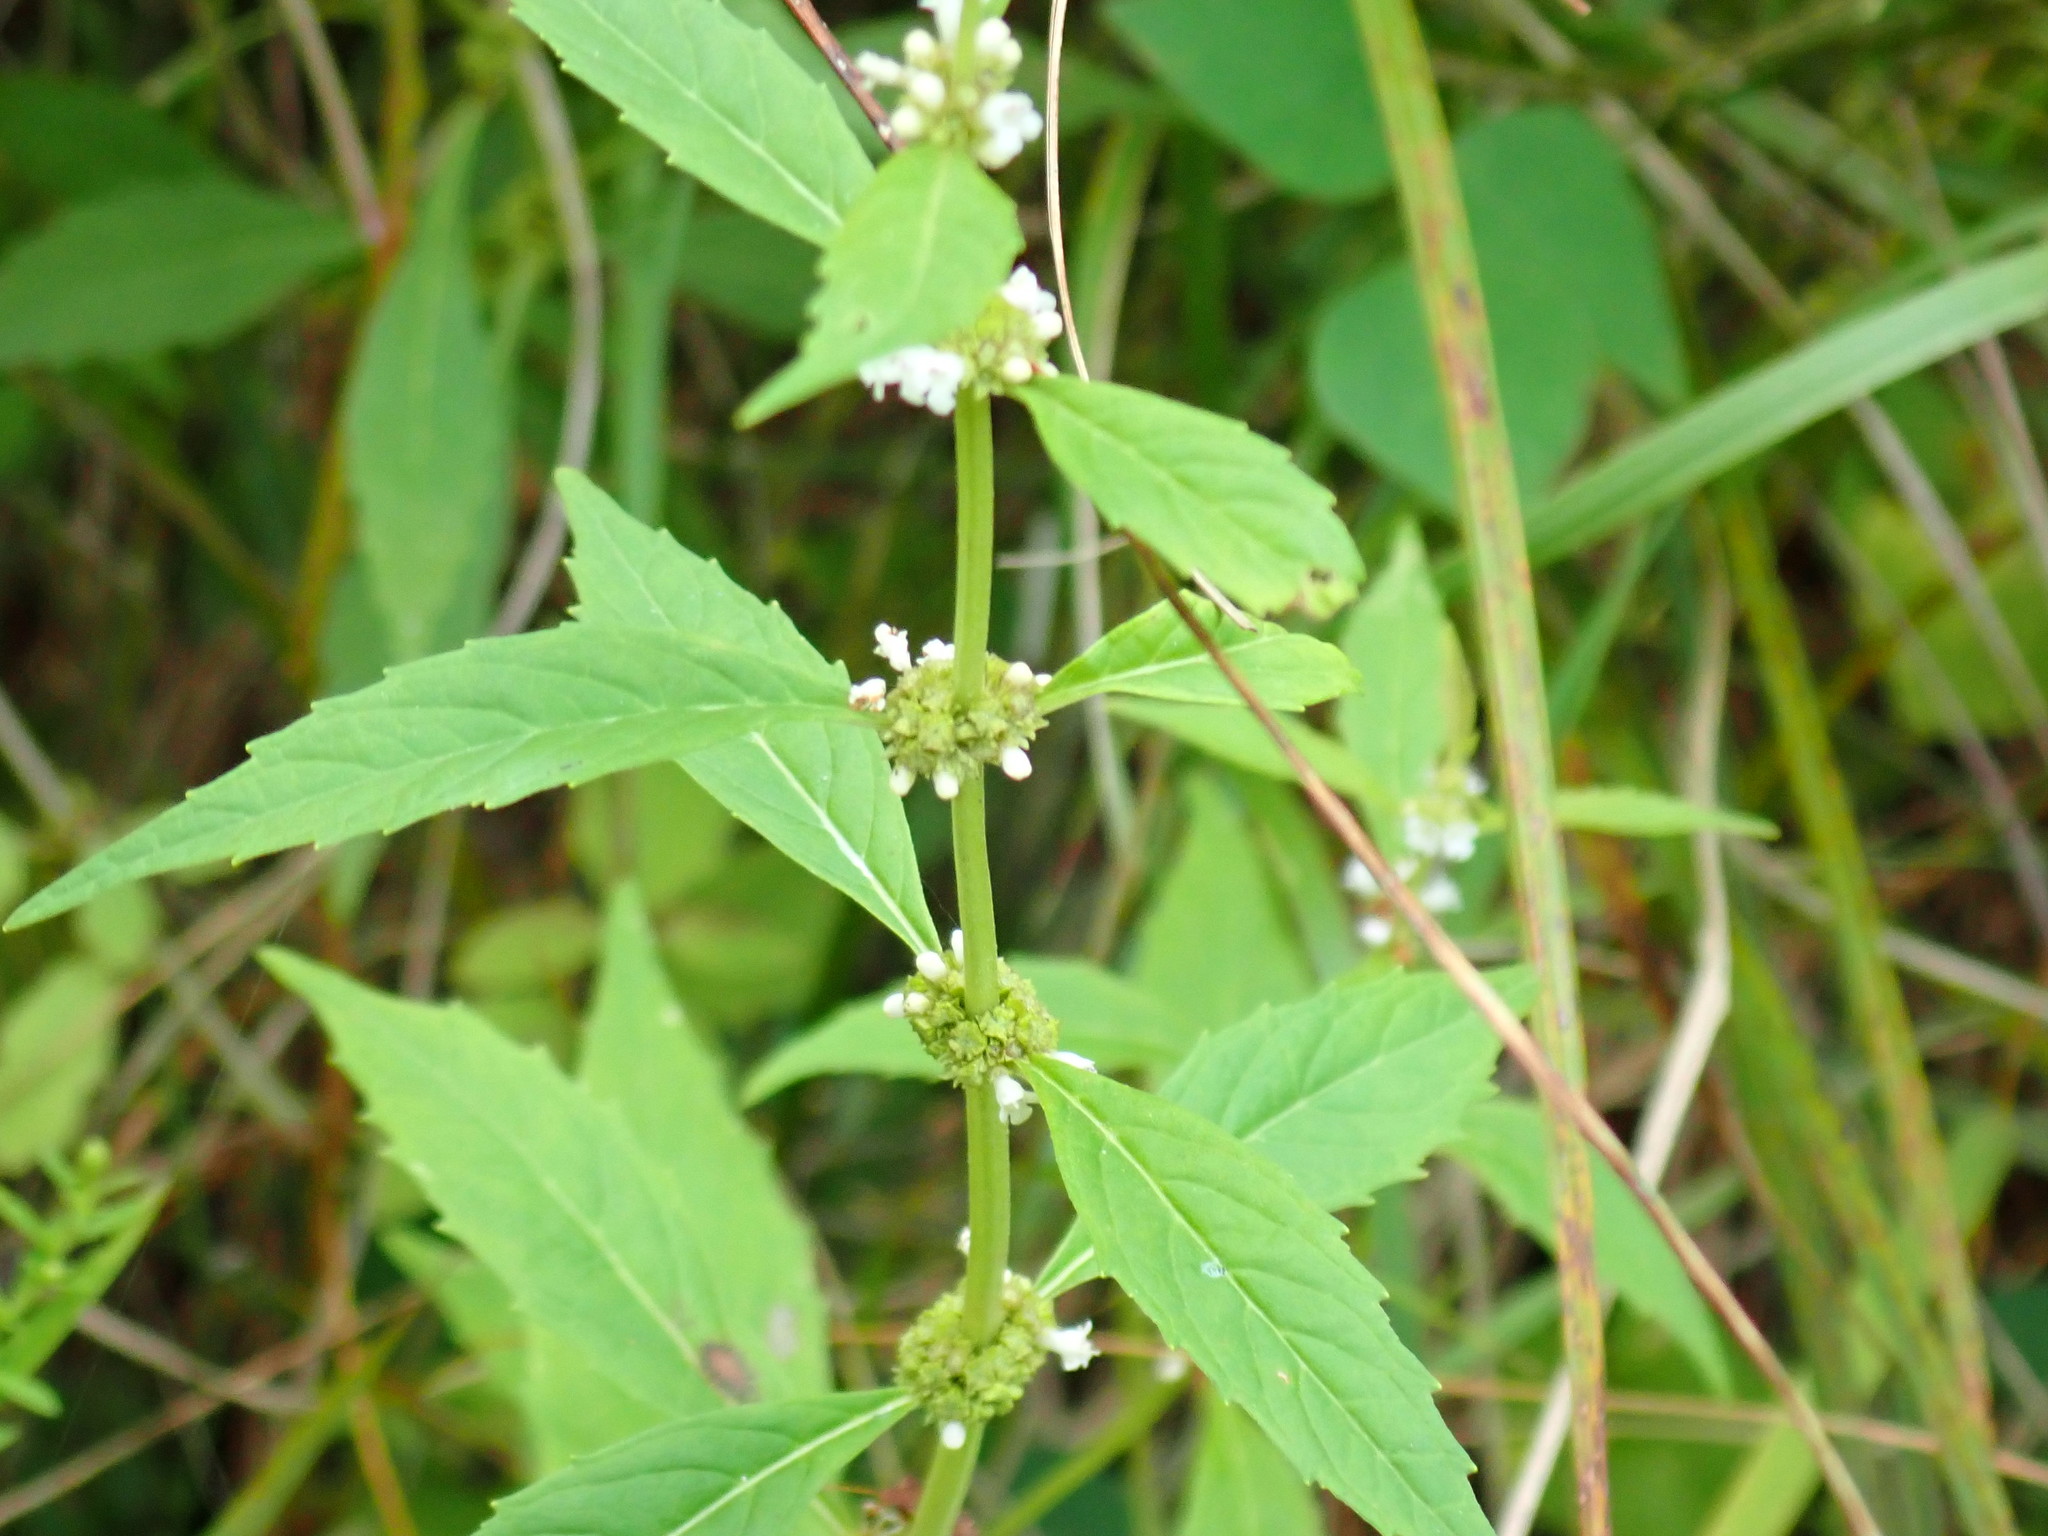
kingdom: Plantae
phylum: Tracheophyta
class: Magnoliopsida
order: Lamiales
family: Lamiaceae
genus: Lycopus
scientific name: Lycopus uniflorus
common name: Northern bugleweed
